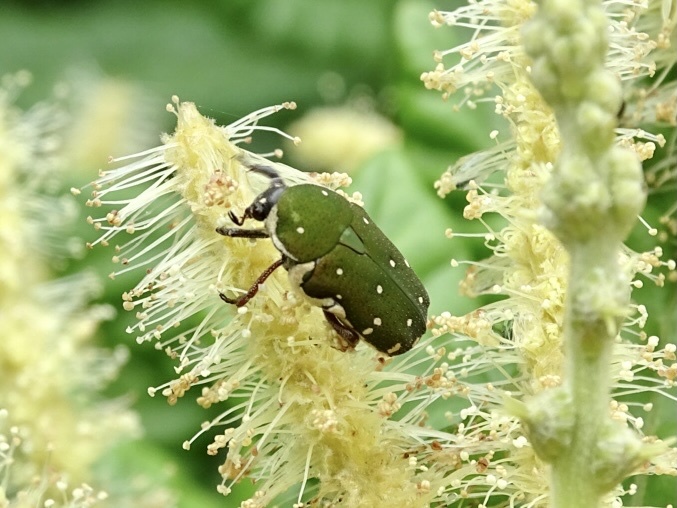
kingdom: Animalia
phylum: Arthropoda
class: Insecta
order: Coleoptera
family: Scarabaeidae
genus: Glycyphana
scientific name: Glycyphana laotica
